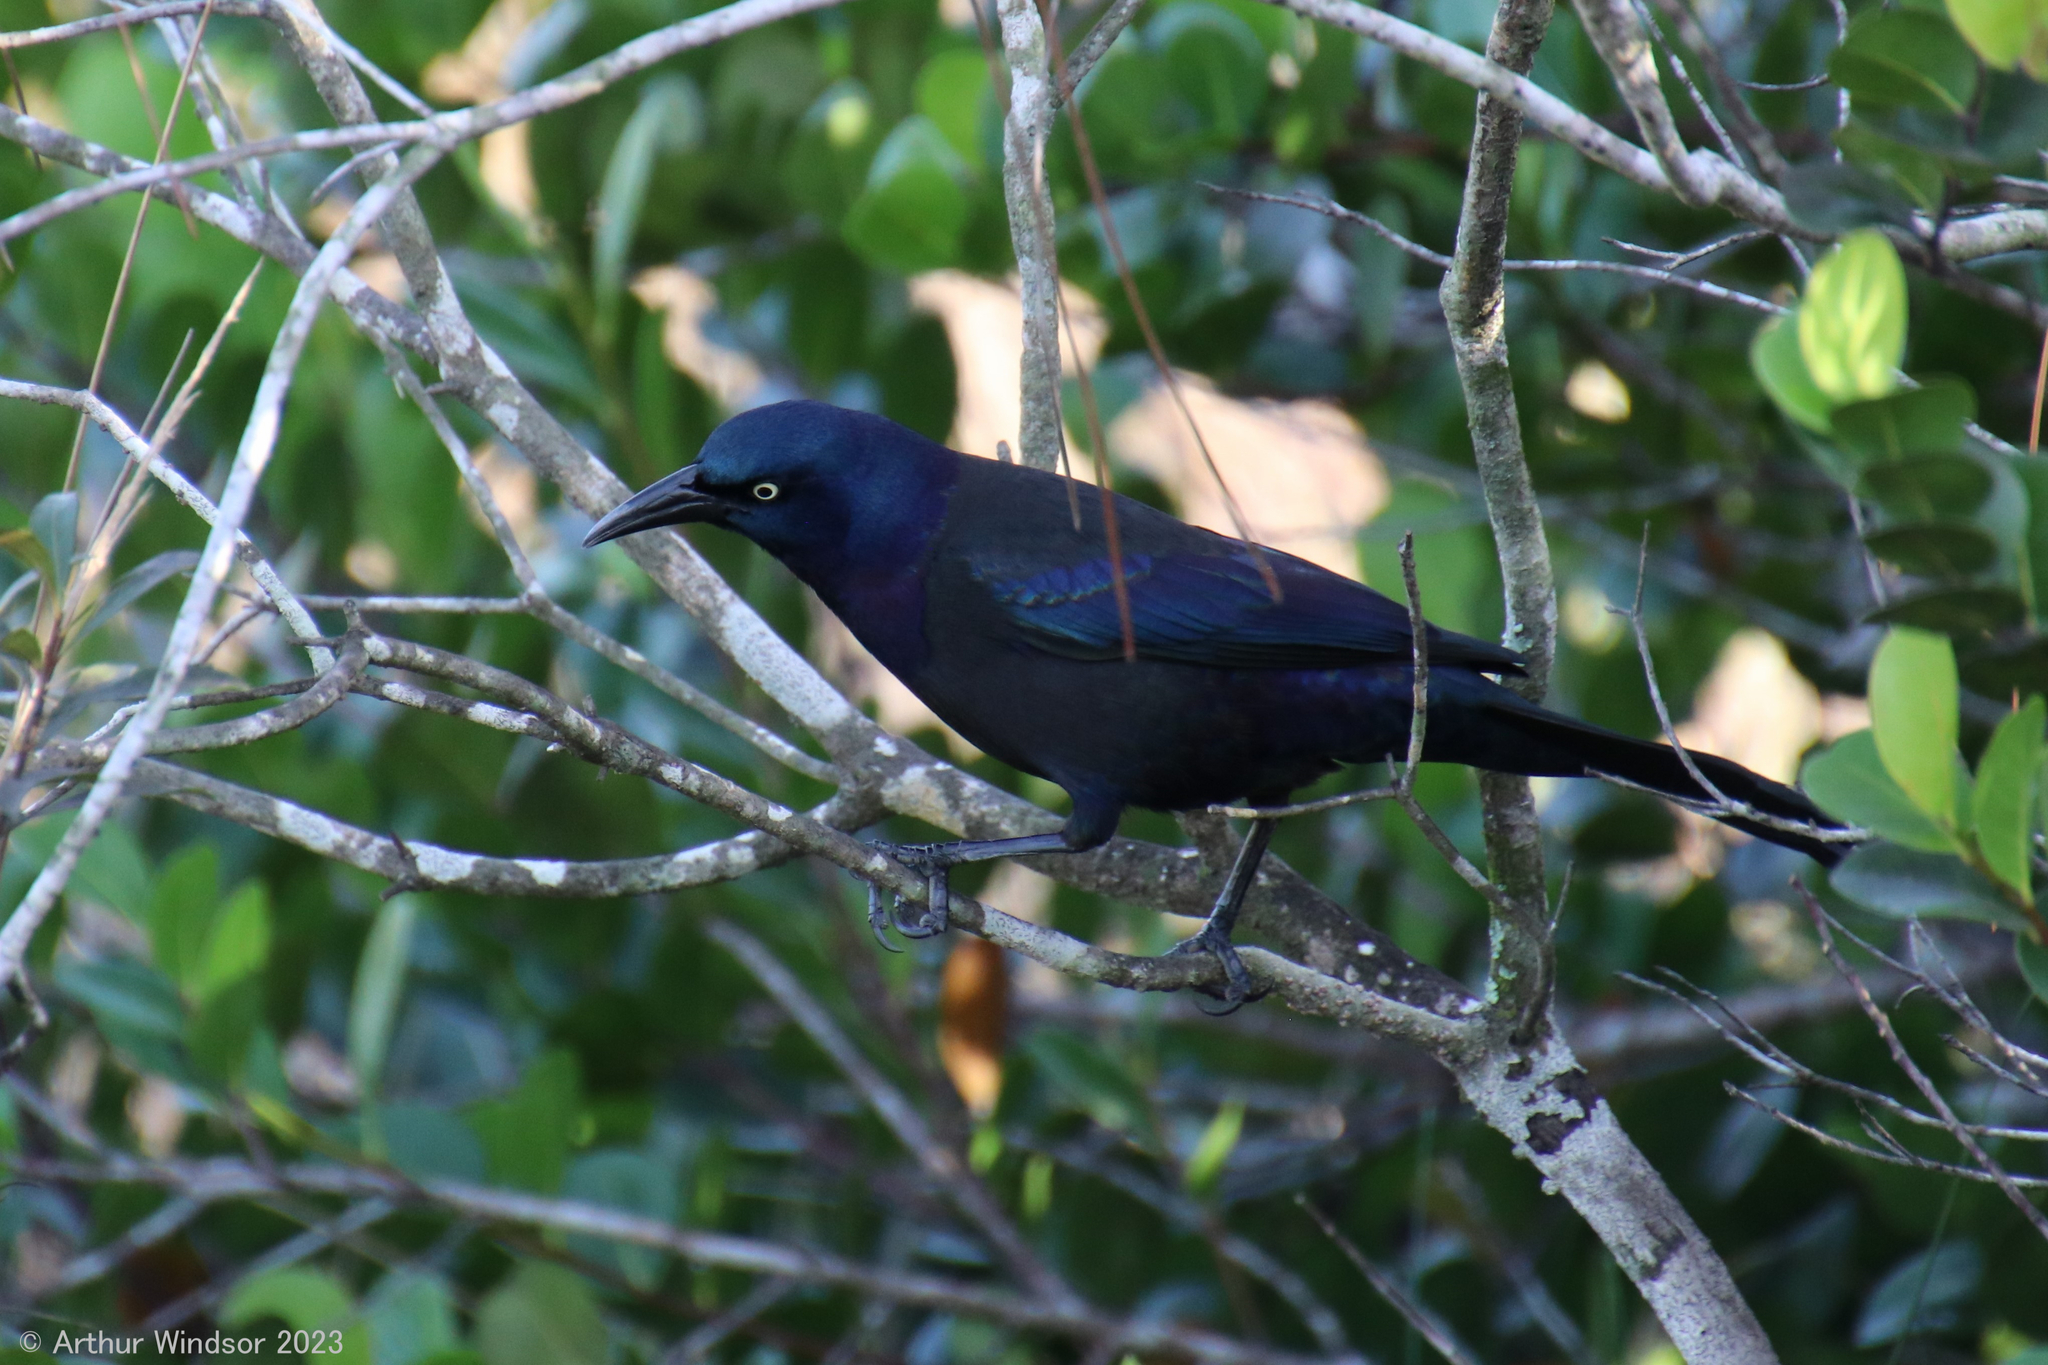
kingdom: Animalia
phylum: Chordata
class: Aves
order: Passeriformes
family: Icteridae
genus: Quiscalus
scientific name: Quiscalus quiscula
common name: Common grackle
